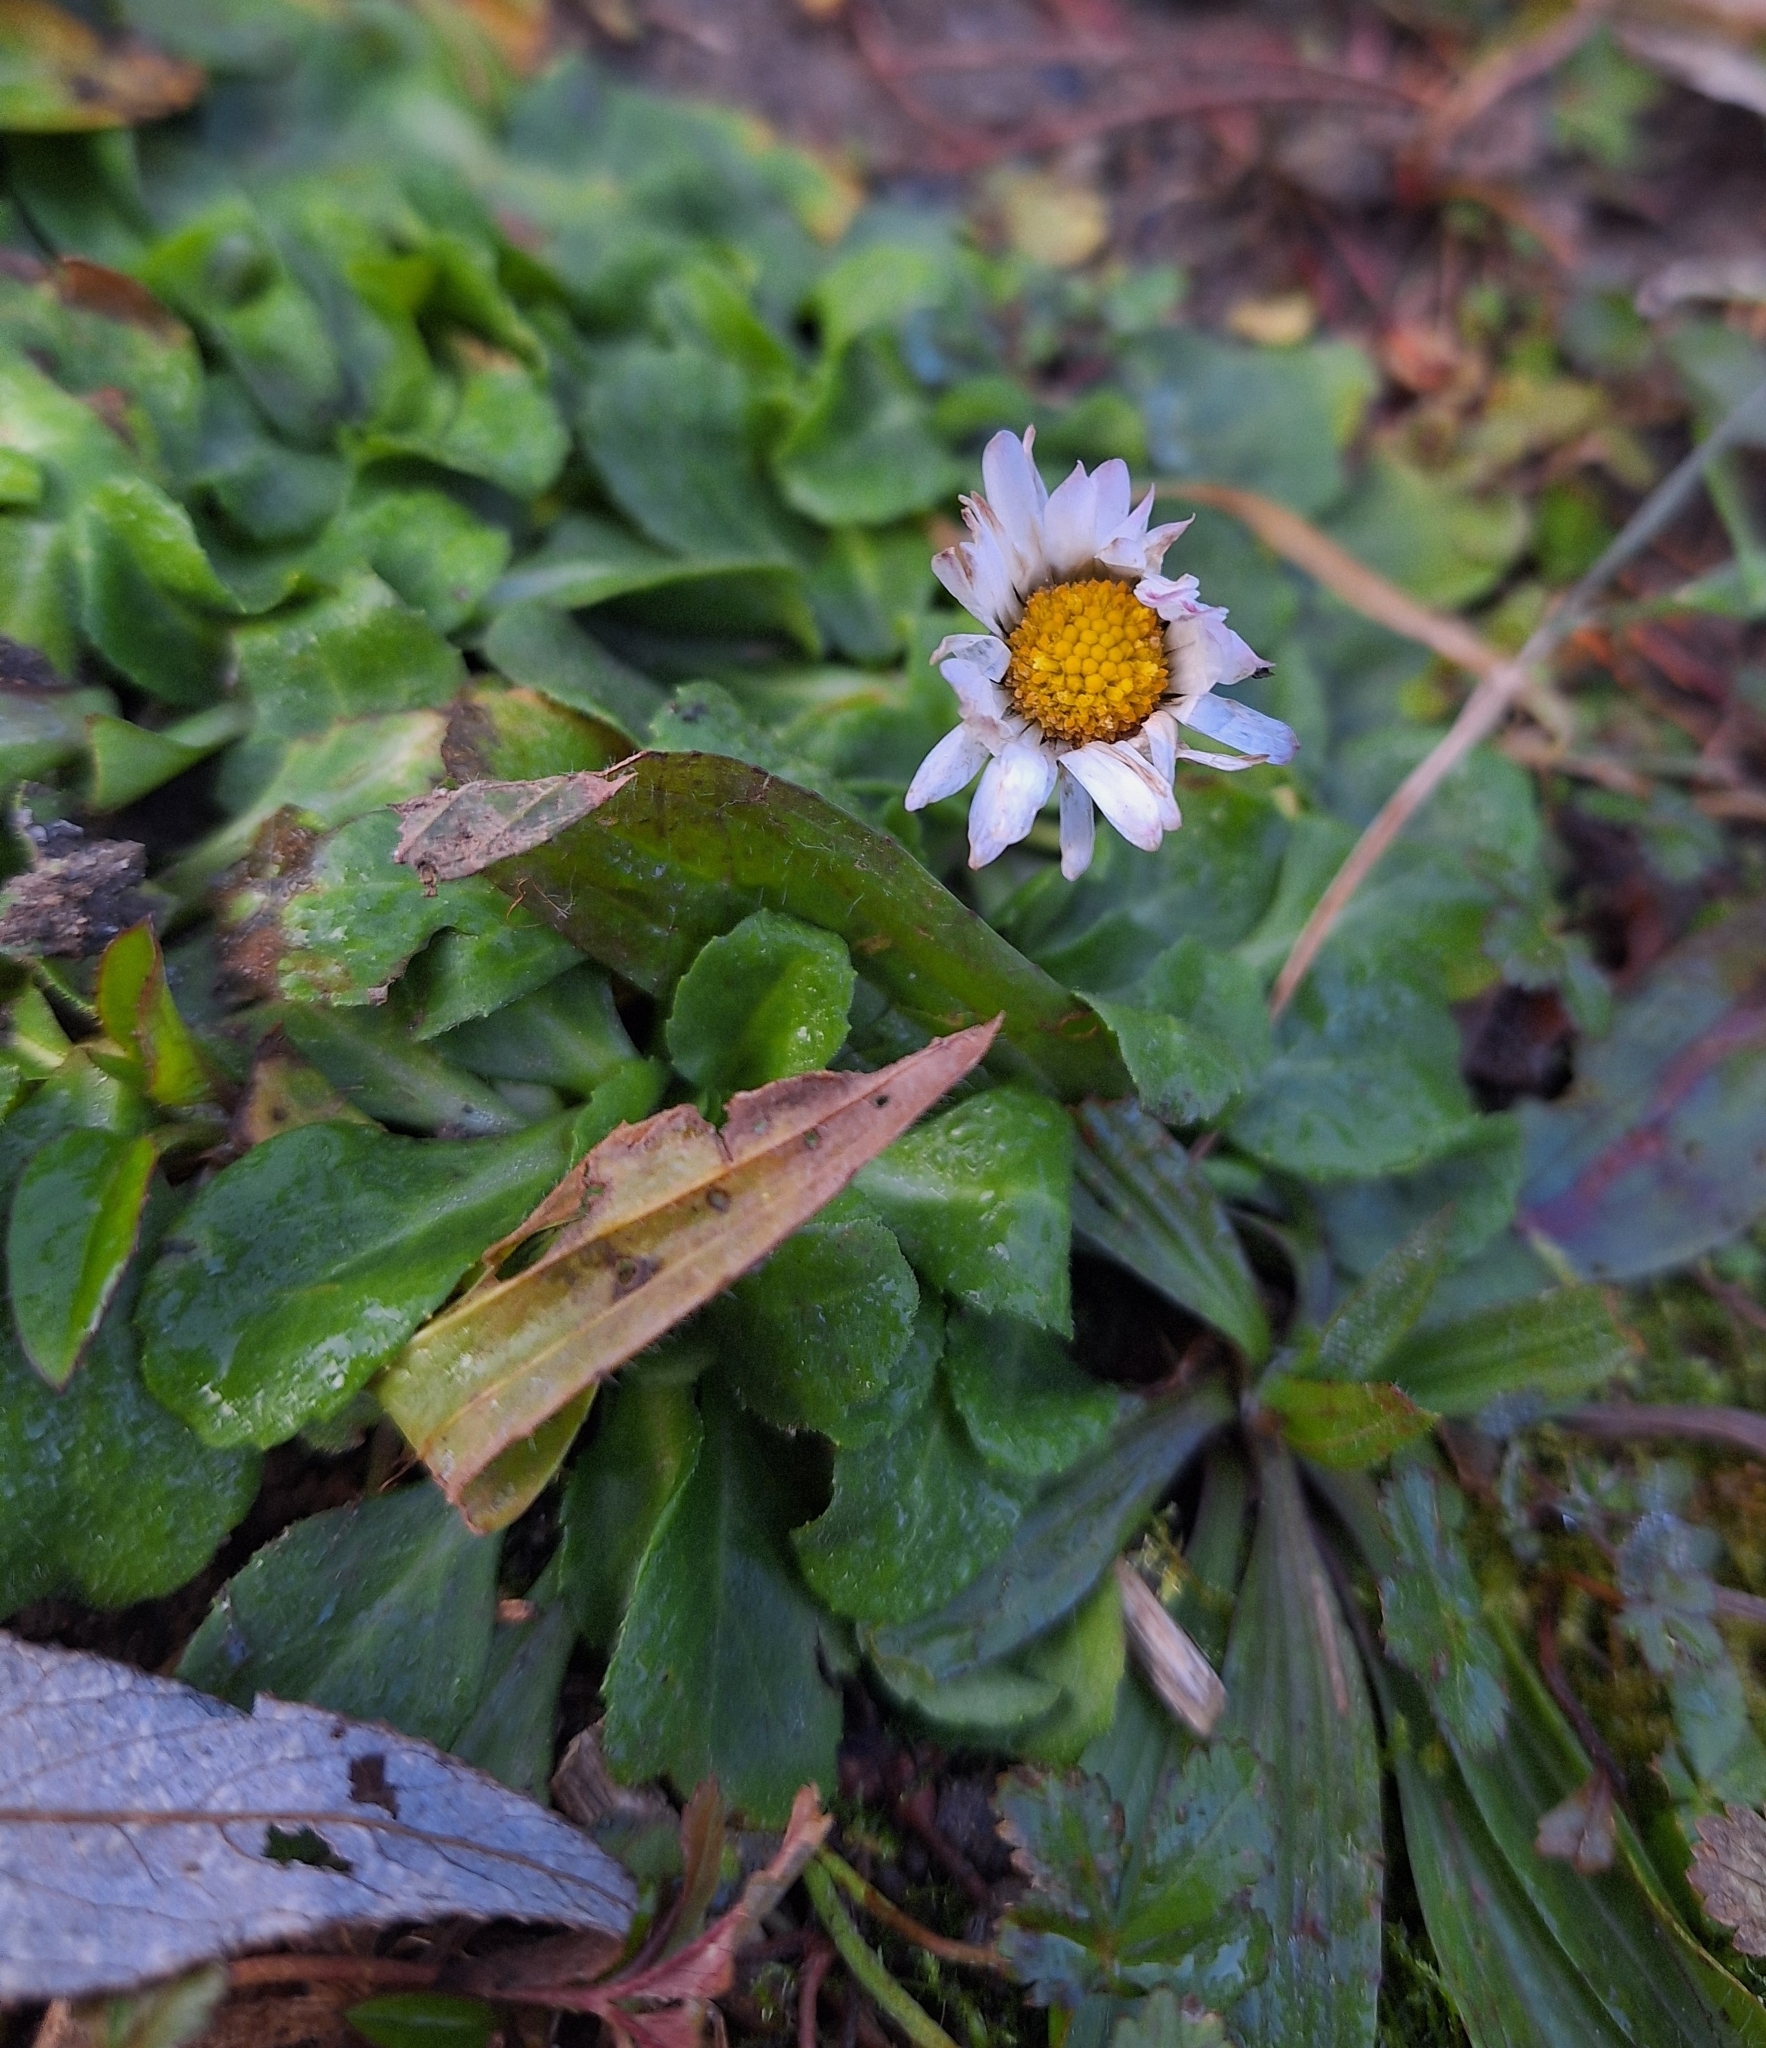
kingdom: Plantae
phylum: Tracheophyta
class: Magnoliopsida
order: Asterales
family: Asteraceae
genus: Bellis
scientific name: Bellis perennis
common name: Lawndaisy
